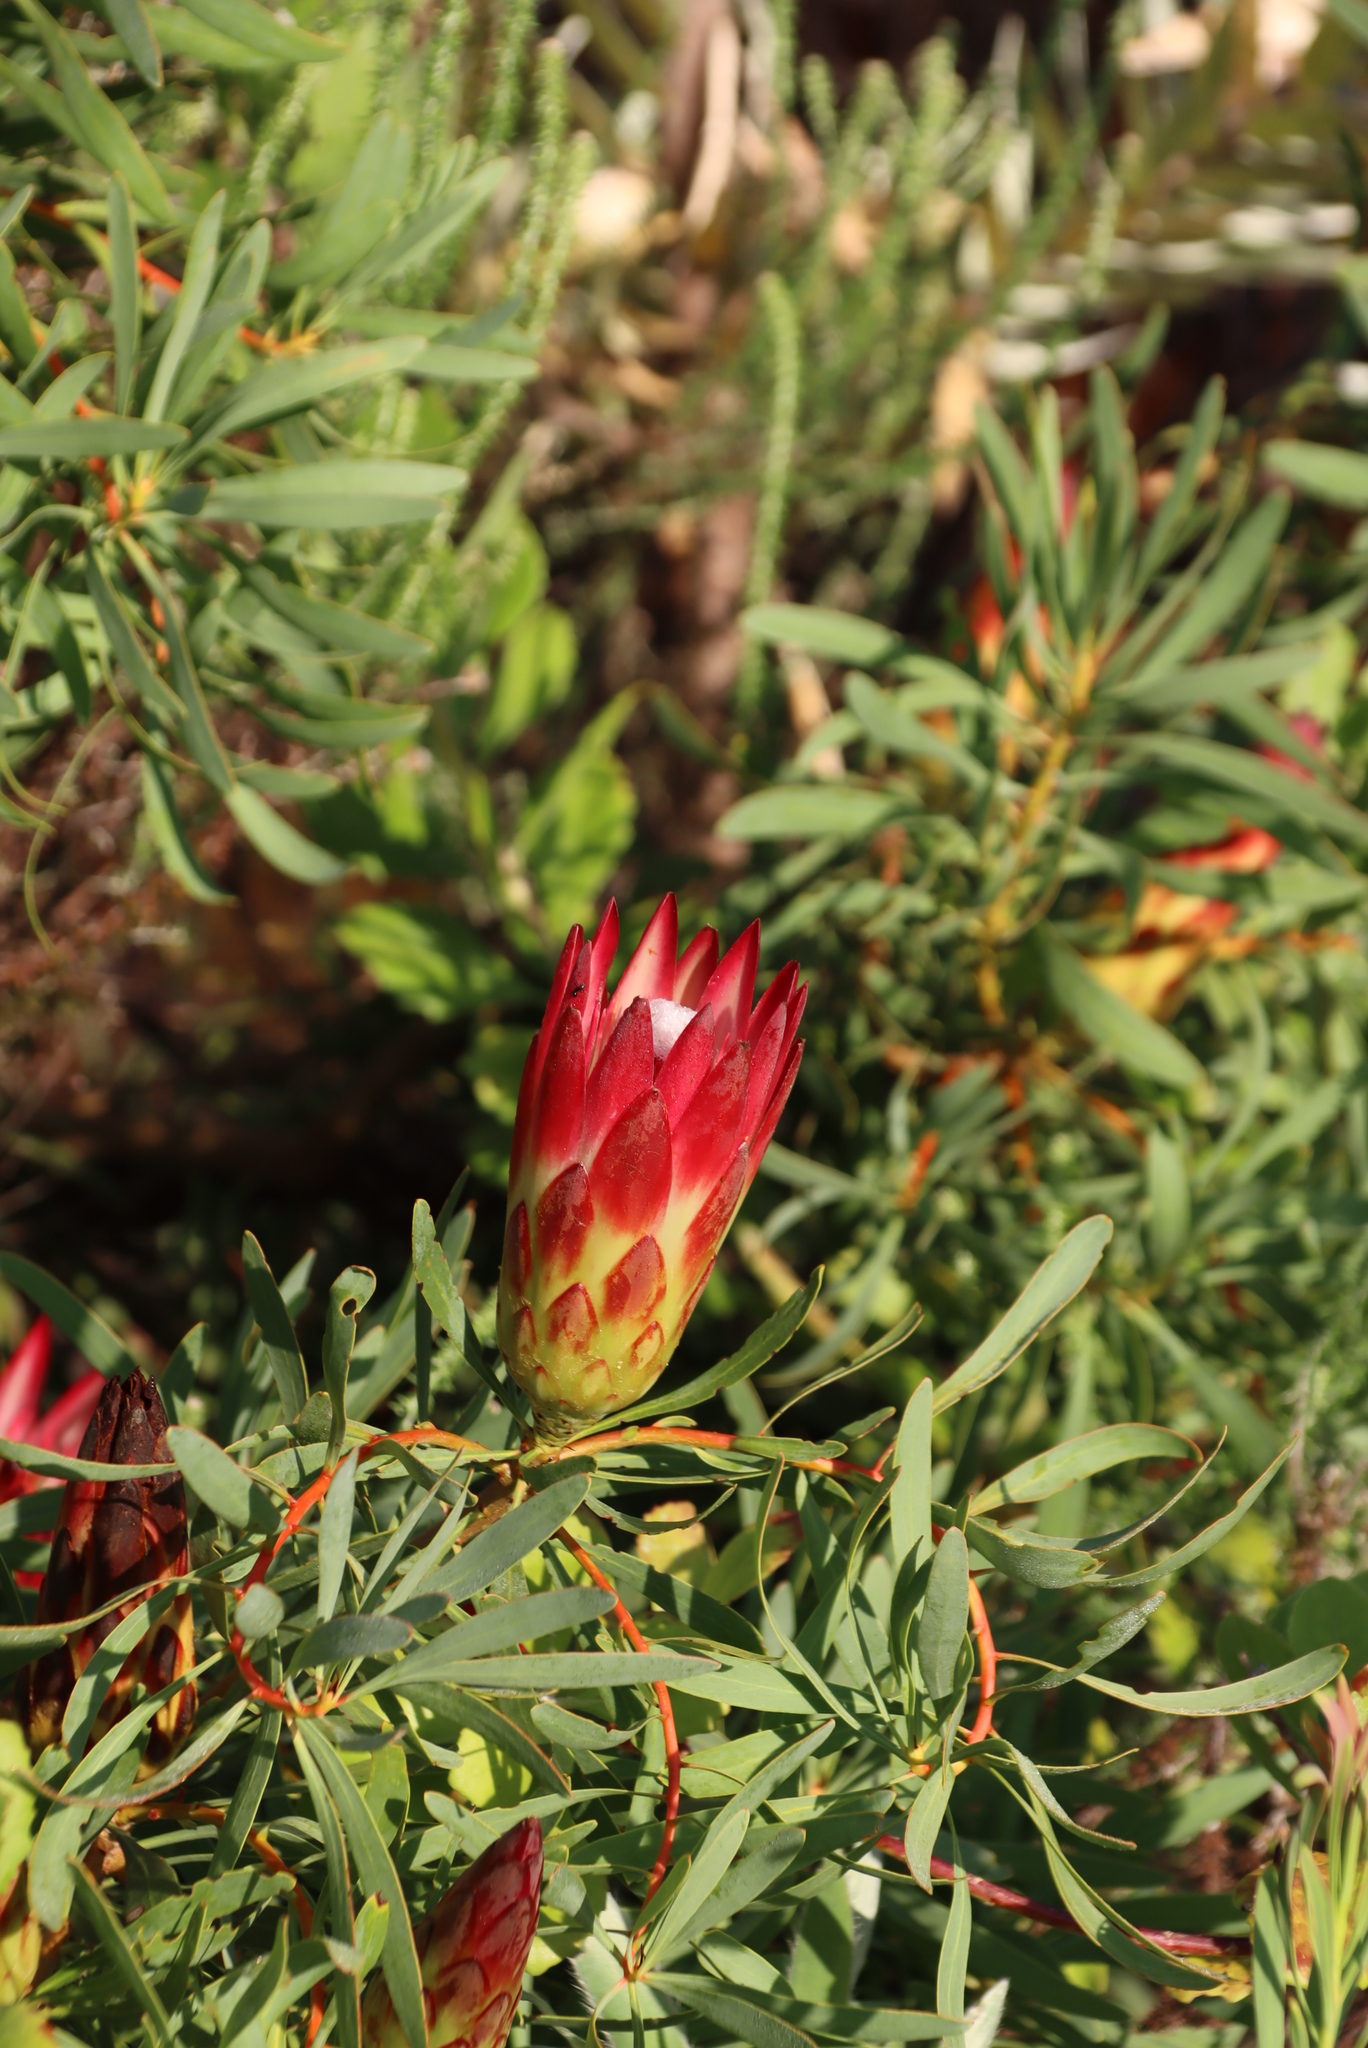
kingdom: Plantae
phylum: Tracheophyta
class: Magnoliopsida
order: Proteales
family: Proteaceae
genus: Protea
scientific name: Protea repens
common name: Sugarbush
